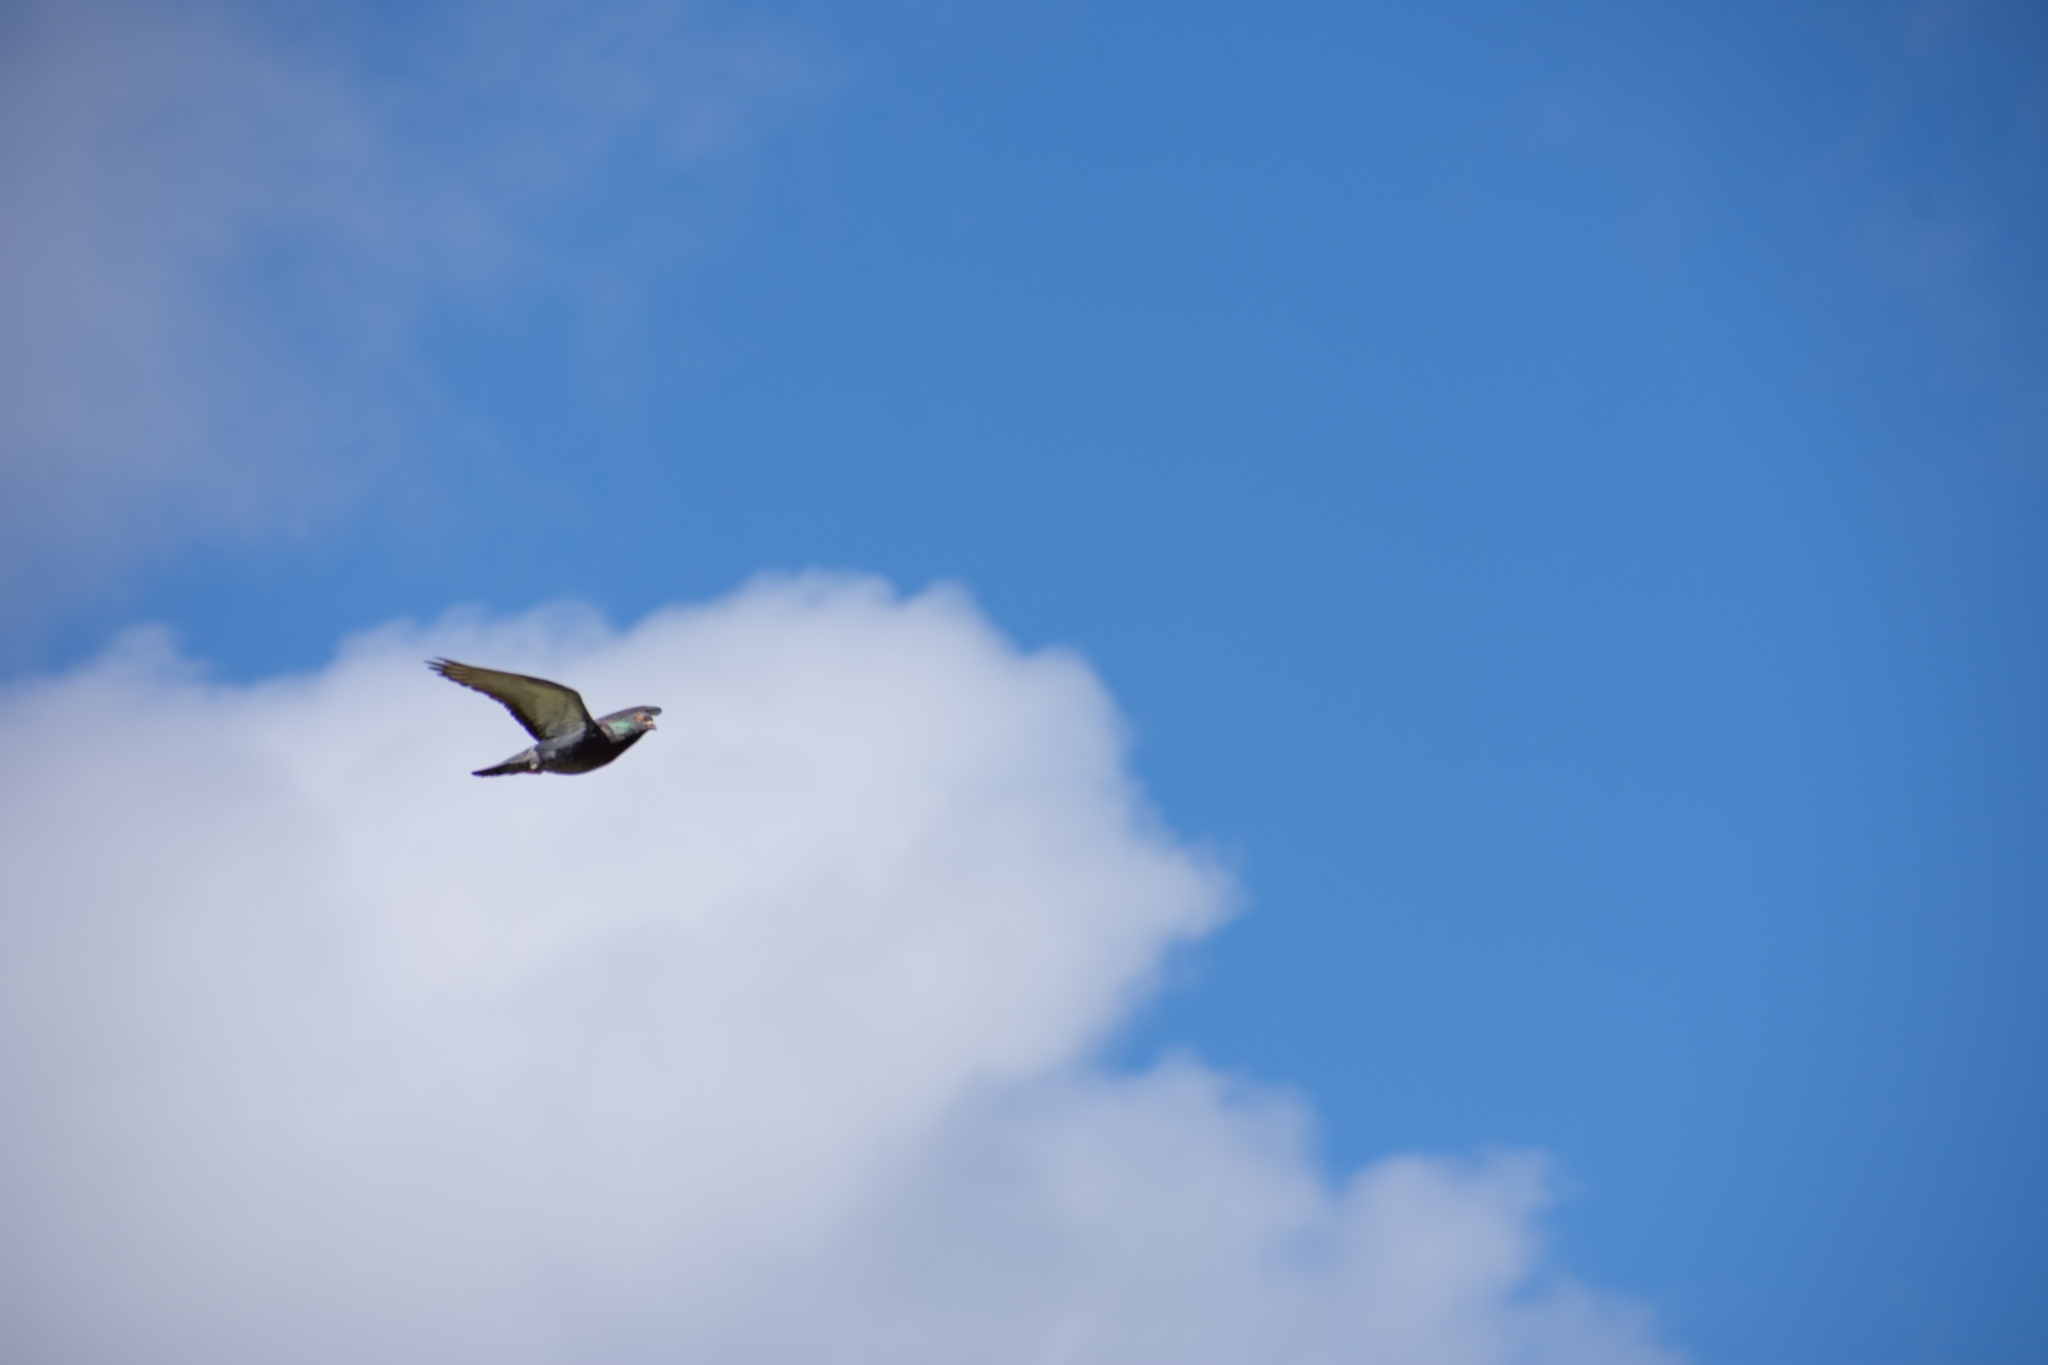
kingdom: Animalia
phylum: Chordata
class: Aves
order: Columbiformes
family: Columbidae
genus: Columba
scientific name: Columba livia
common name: Rock pigeon
